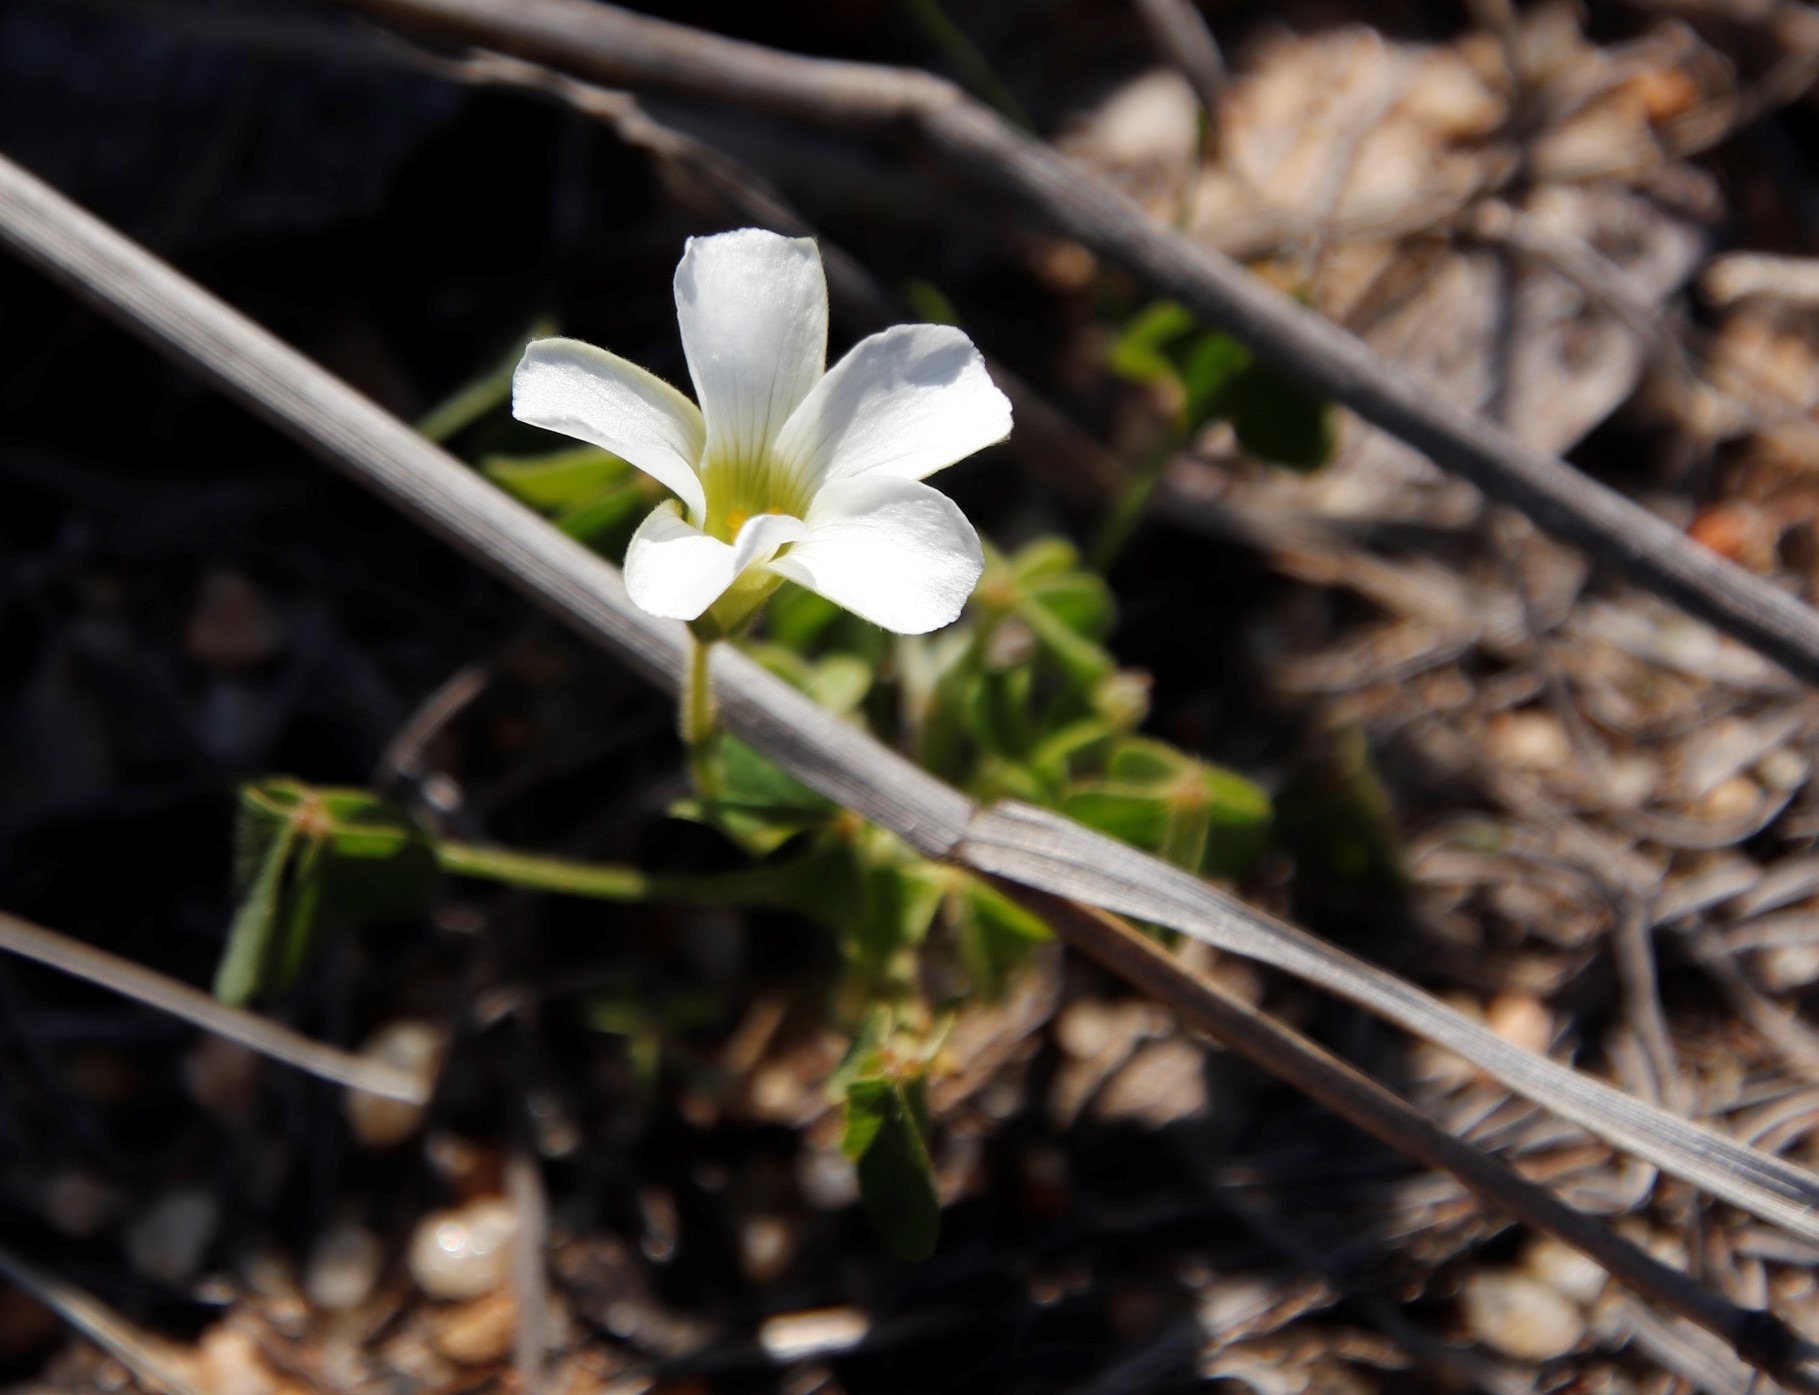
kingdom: Plantae
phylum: Tracheophyta
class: Magnoliopsida
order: Oxalidales
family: Oxalidaceae
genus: Oxalis
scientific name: Oxalis lanata
